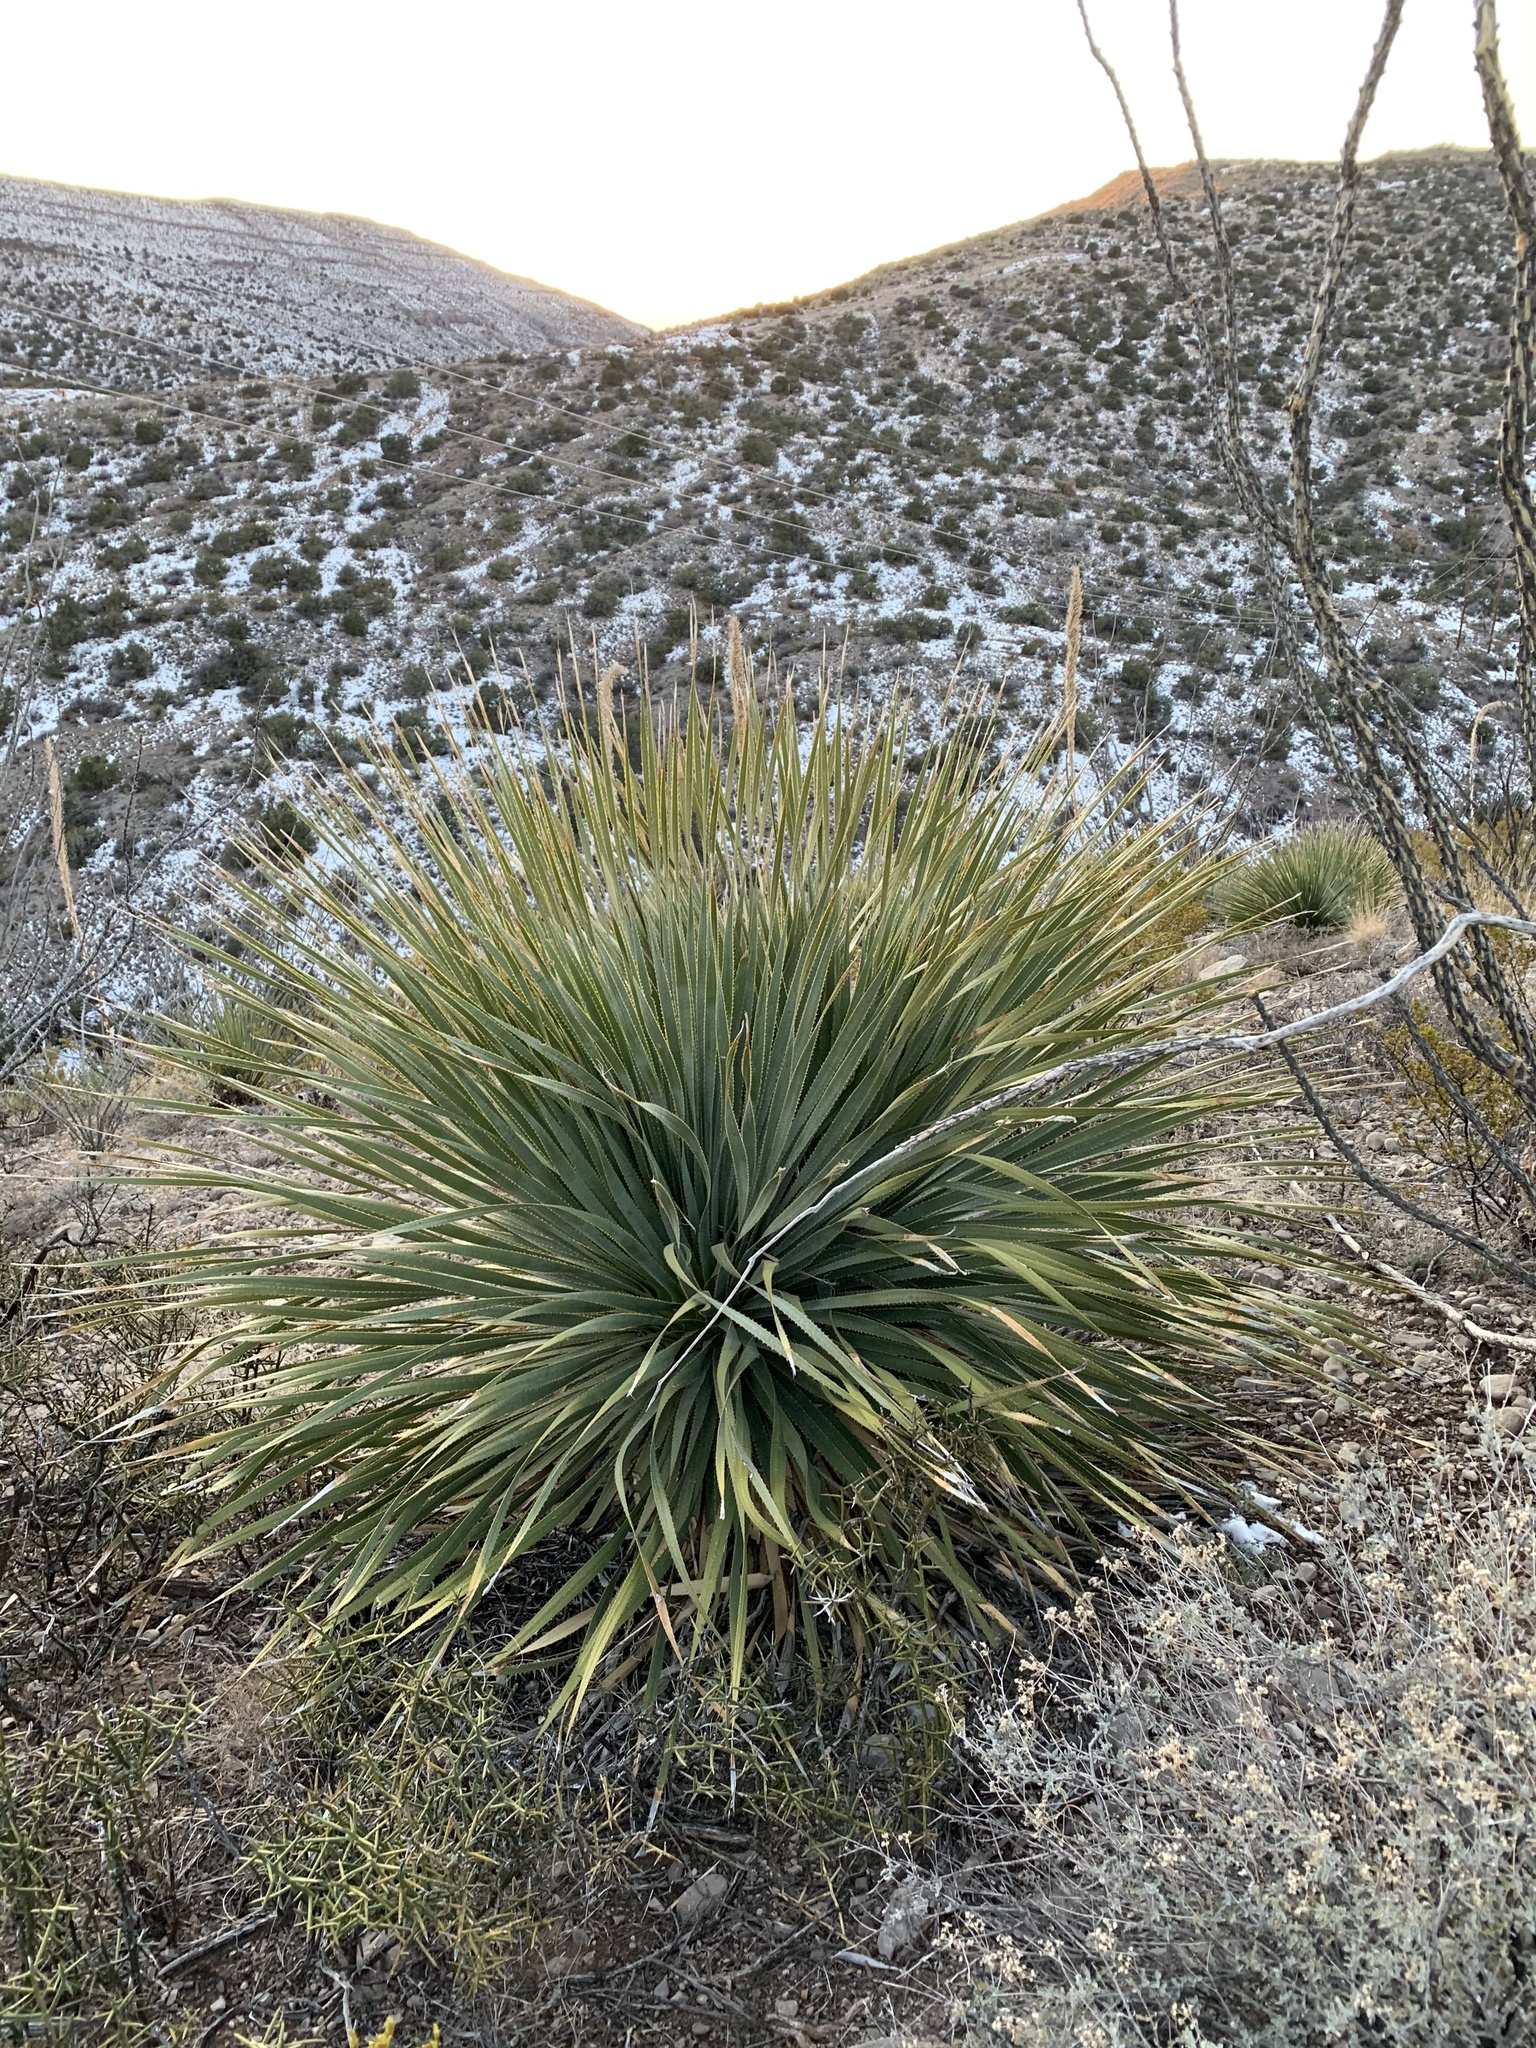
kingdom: Plantae
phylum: Tracheophyta
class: Liliopsida
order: Asparagales
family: Asparagaceae
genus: Dasylirion
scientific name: Dasylirion wheeleri
